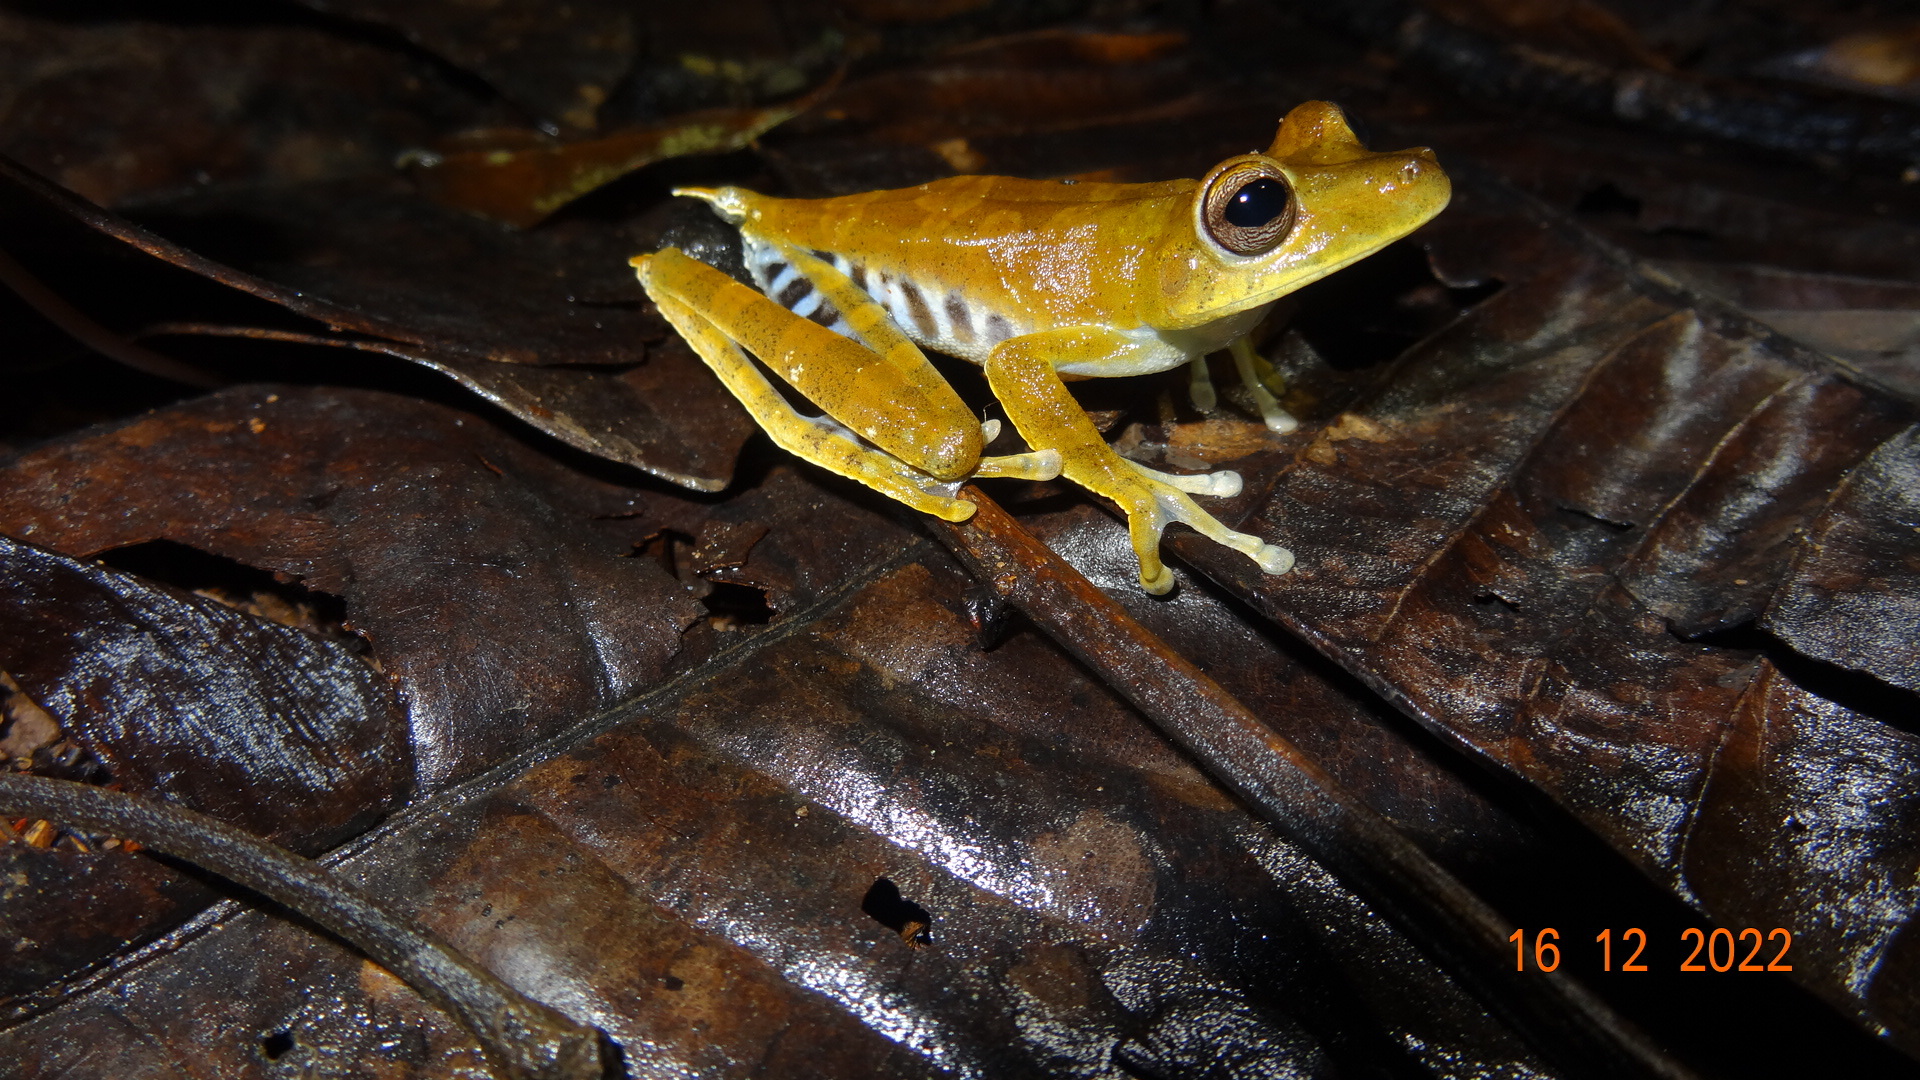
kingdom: Animalia
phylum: Chordata
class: Amphibia
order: Anura
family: Hylidae
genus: Boana
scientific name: Boana calcarata
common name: Blue-flanked treefrog
